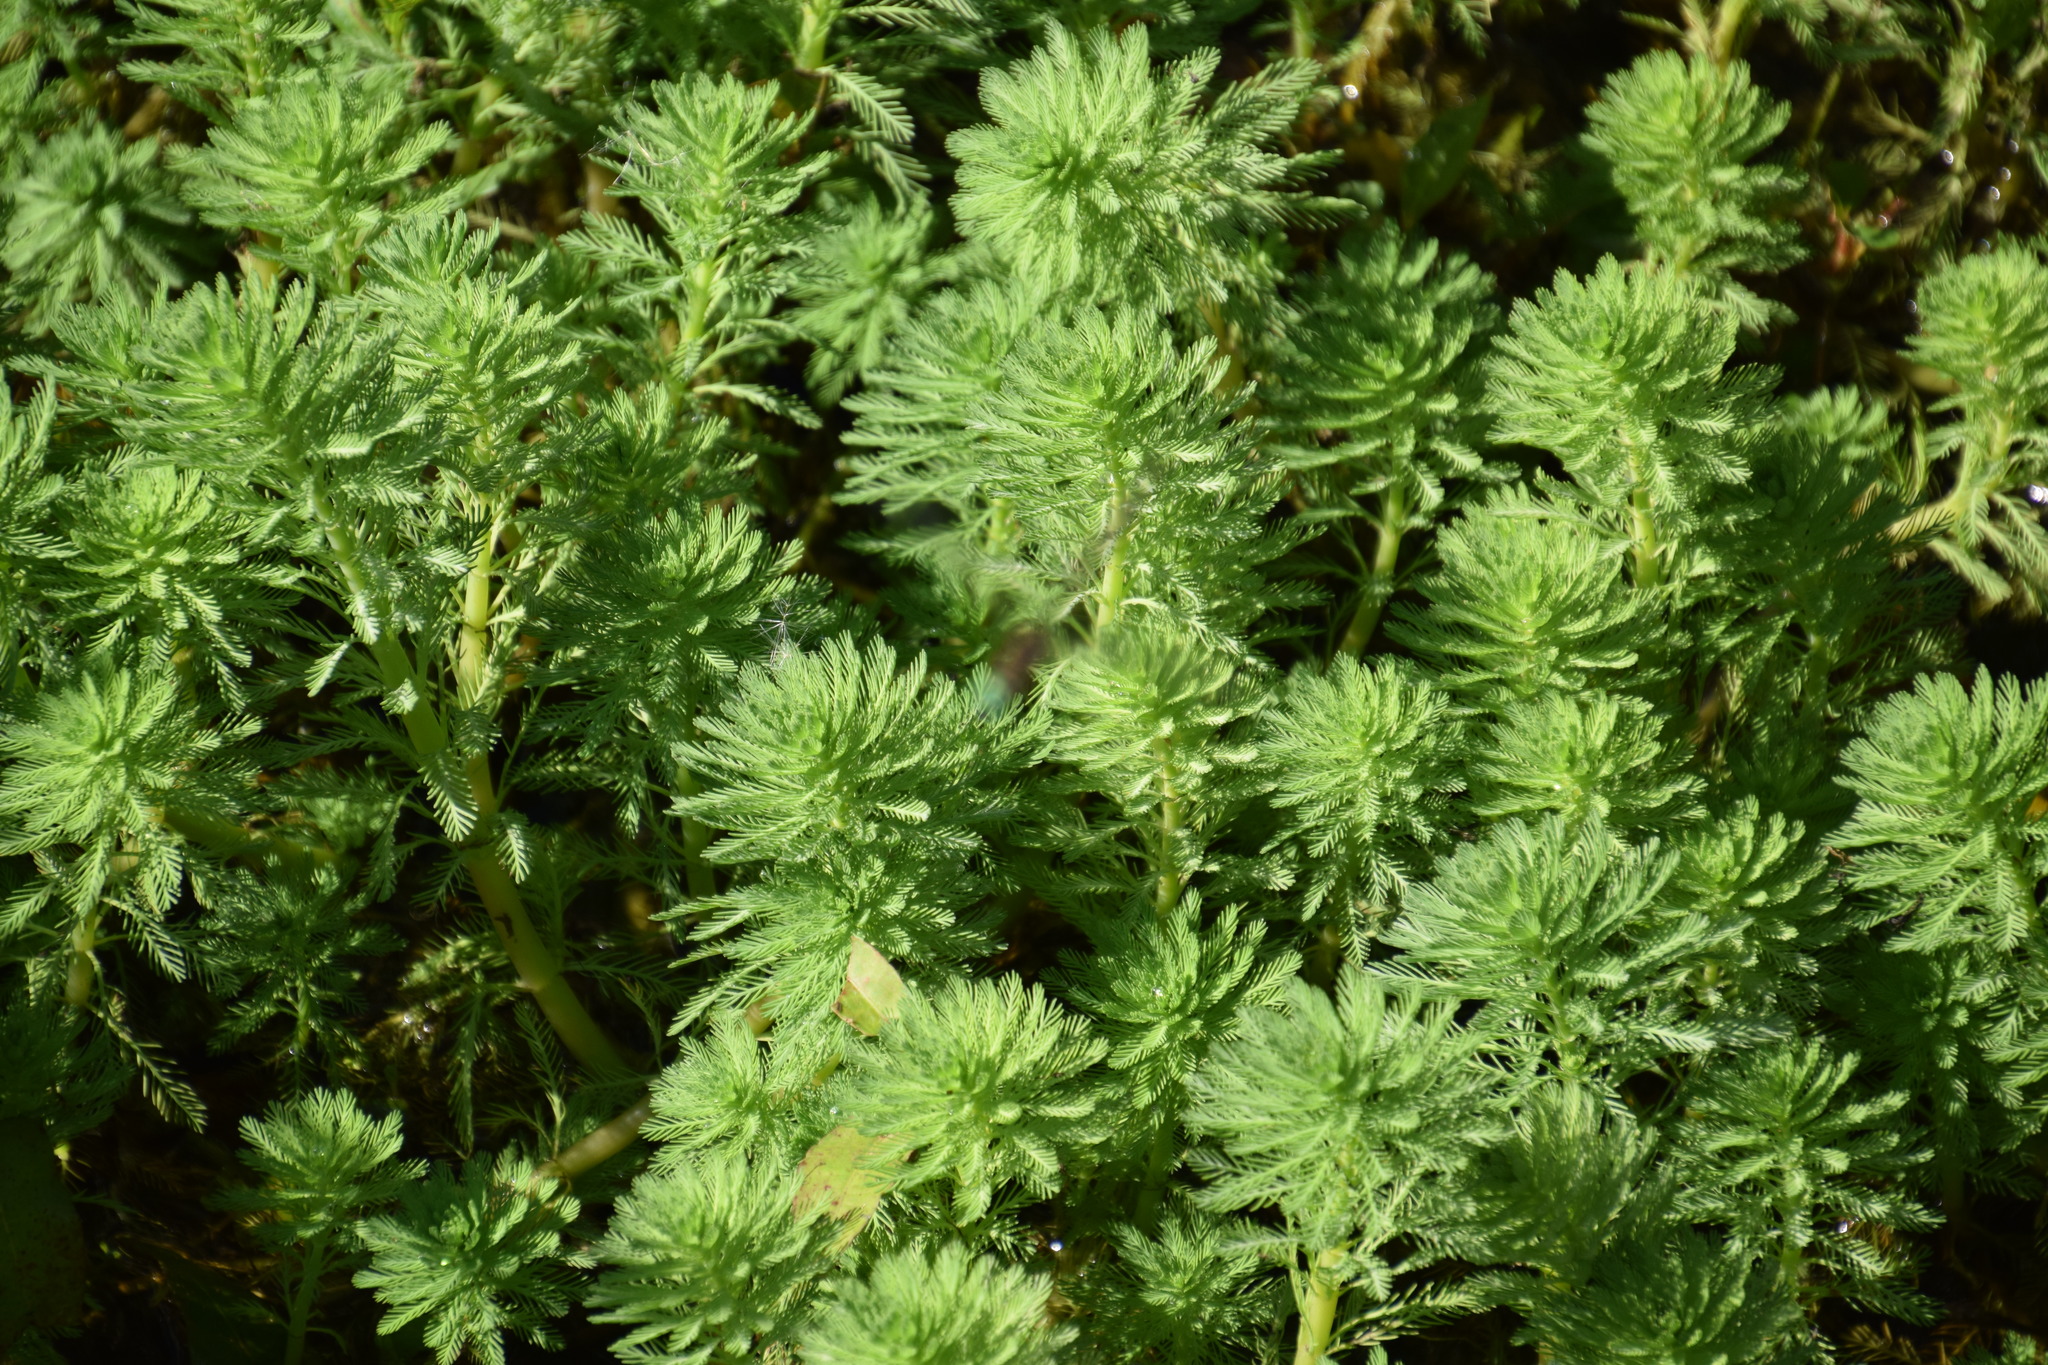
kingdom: Plantae
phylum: Tracheophyta
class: Magnoliopsida
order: Saxifragales
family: Haloragaceae
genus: Myriophyllum
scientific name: Myriophyllum aquaticum
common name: Parrot's feather
